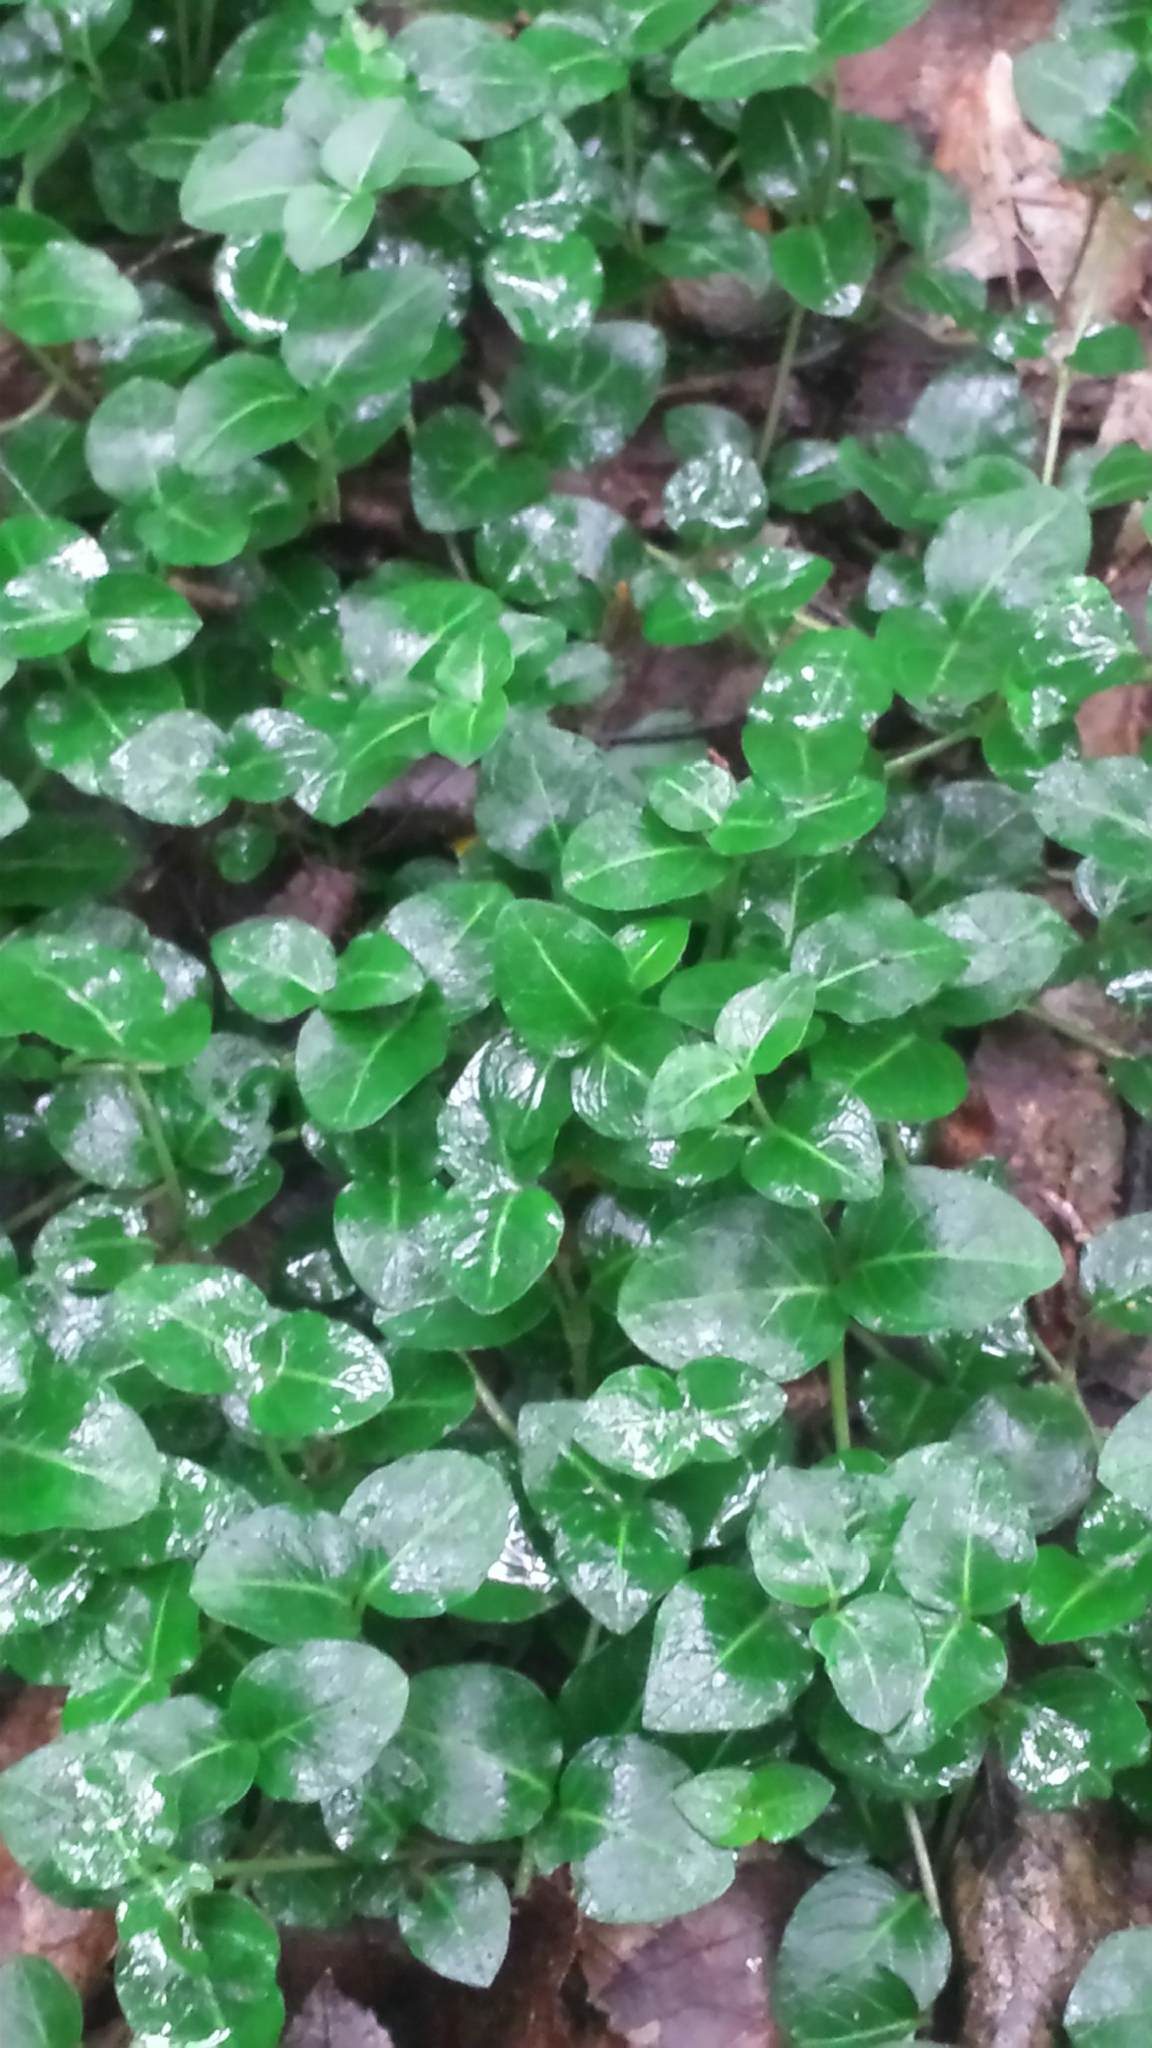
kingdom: Plantae
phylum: Tracheophyta
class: Magnoliopsida
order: Gentianales
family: Rubiaceae
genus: Mitchella
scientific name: Mitchella repens
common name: Partridge-berry
